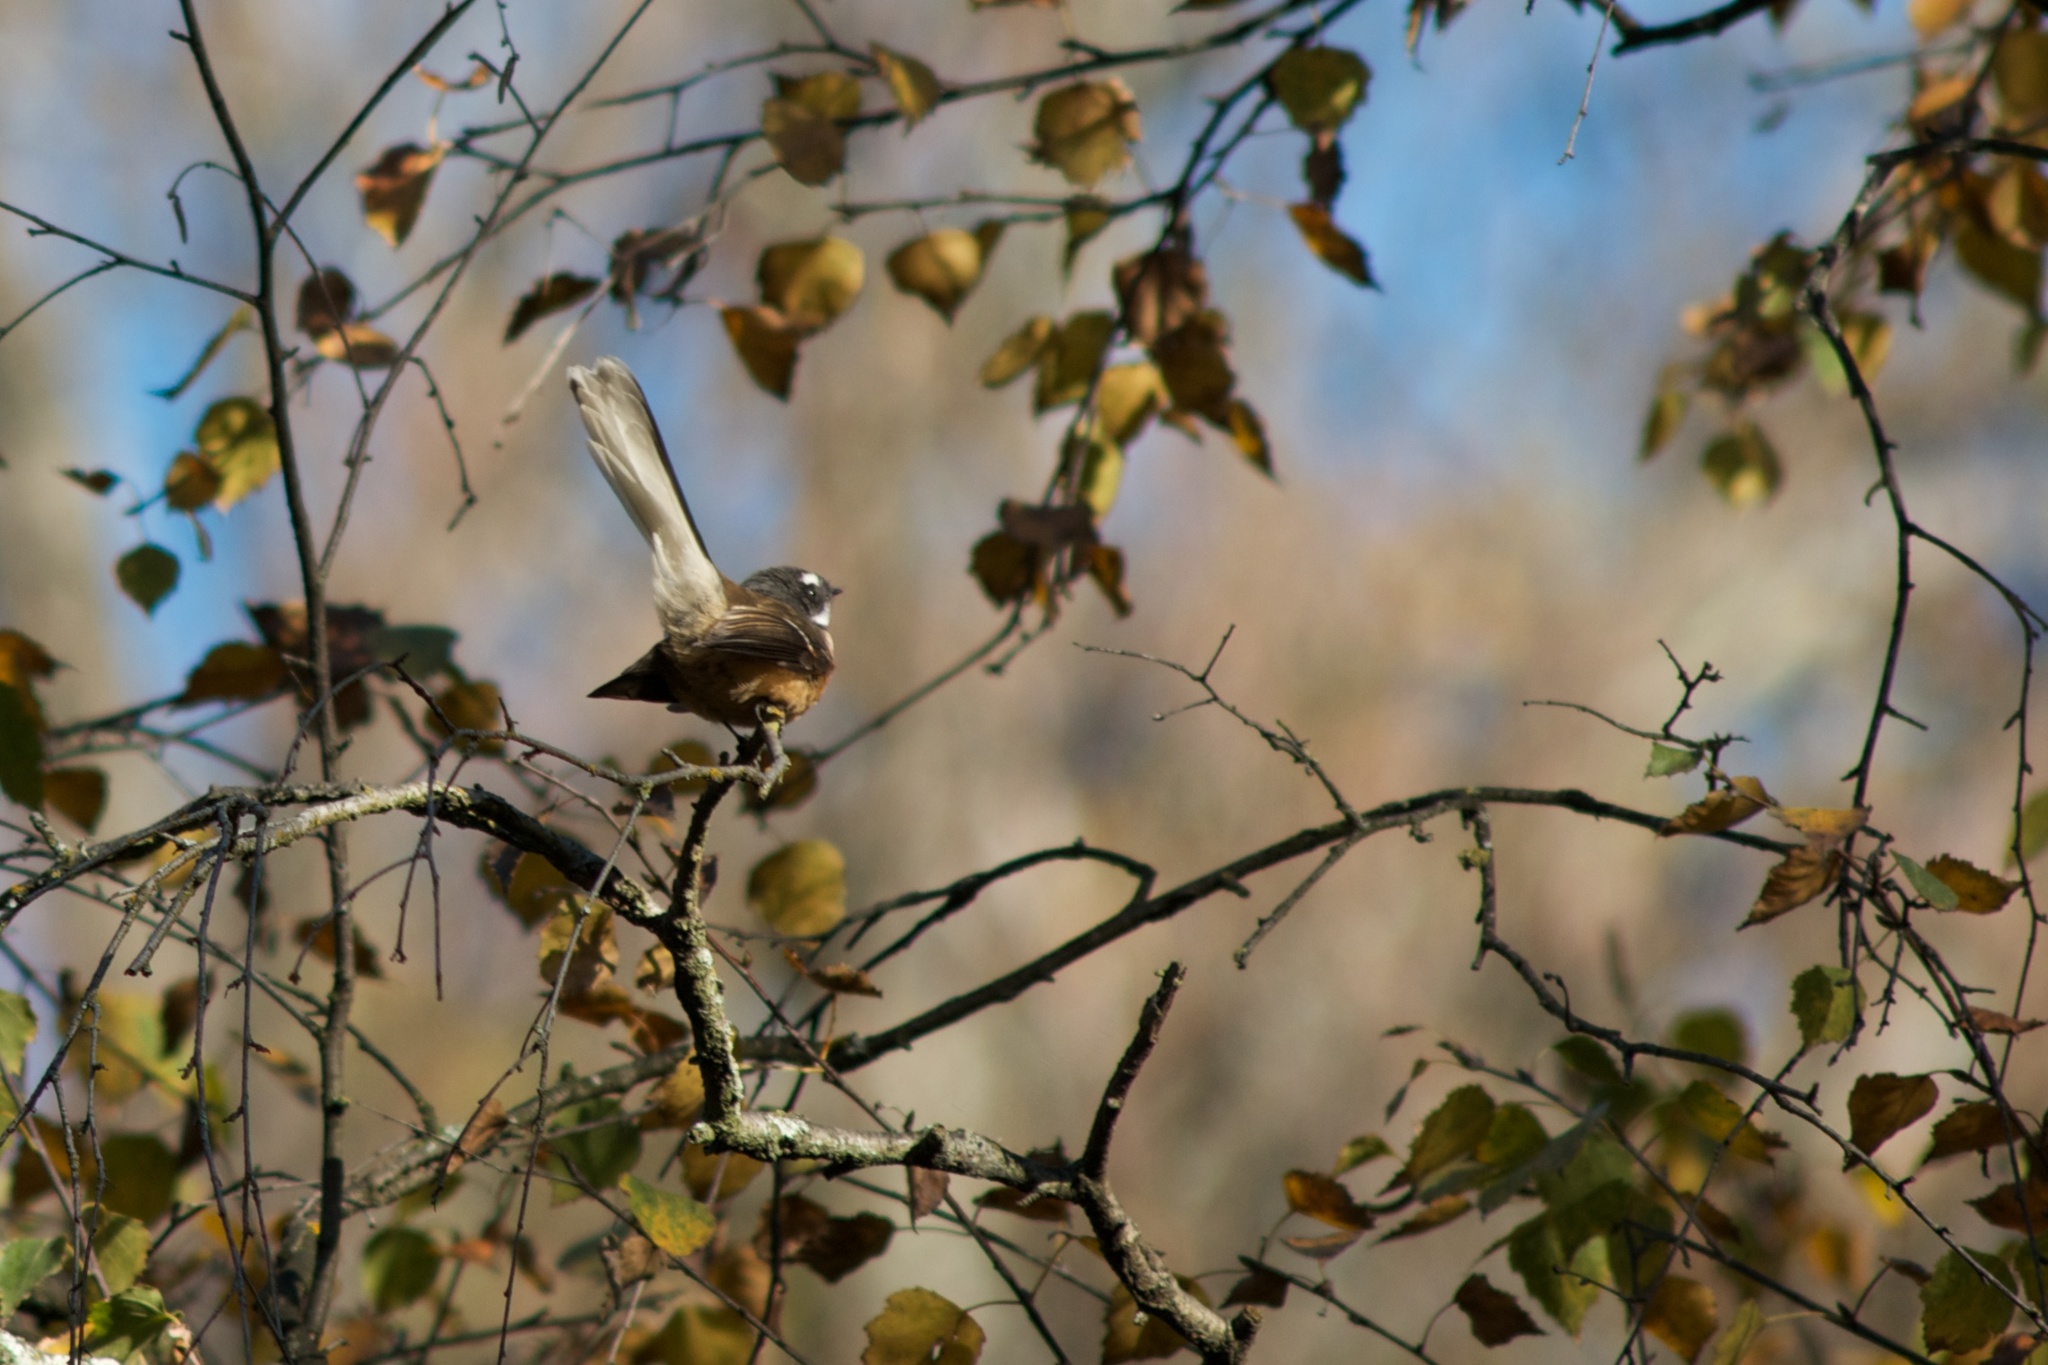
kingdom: Animalia
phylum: Chordata
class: Aves
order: Passeriformes
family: Rhipiduridae
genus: Rhipidura
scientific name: Rhipidura fuliginosa
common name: New zealand fantail
